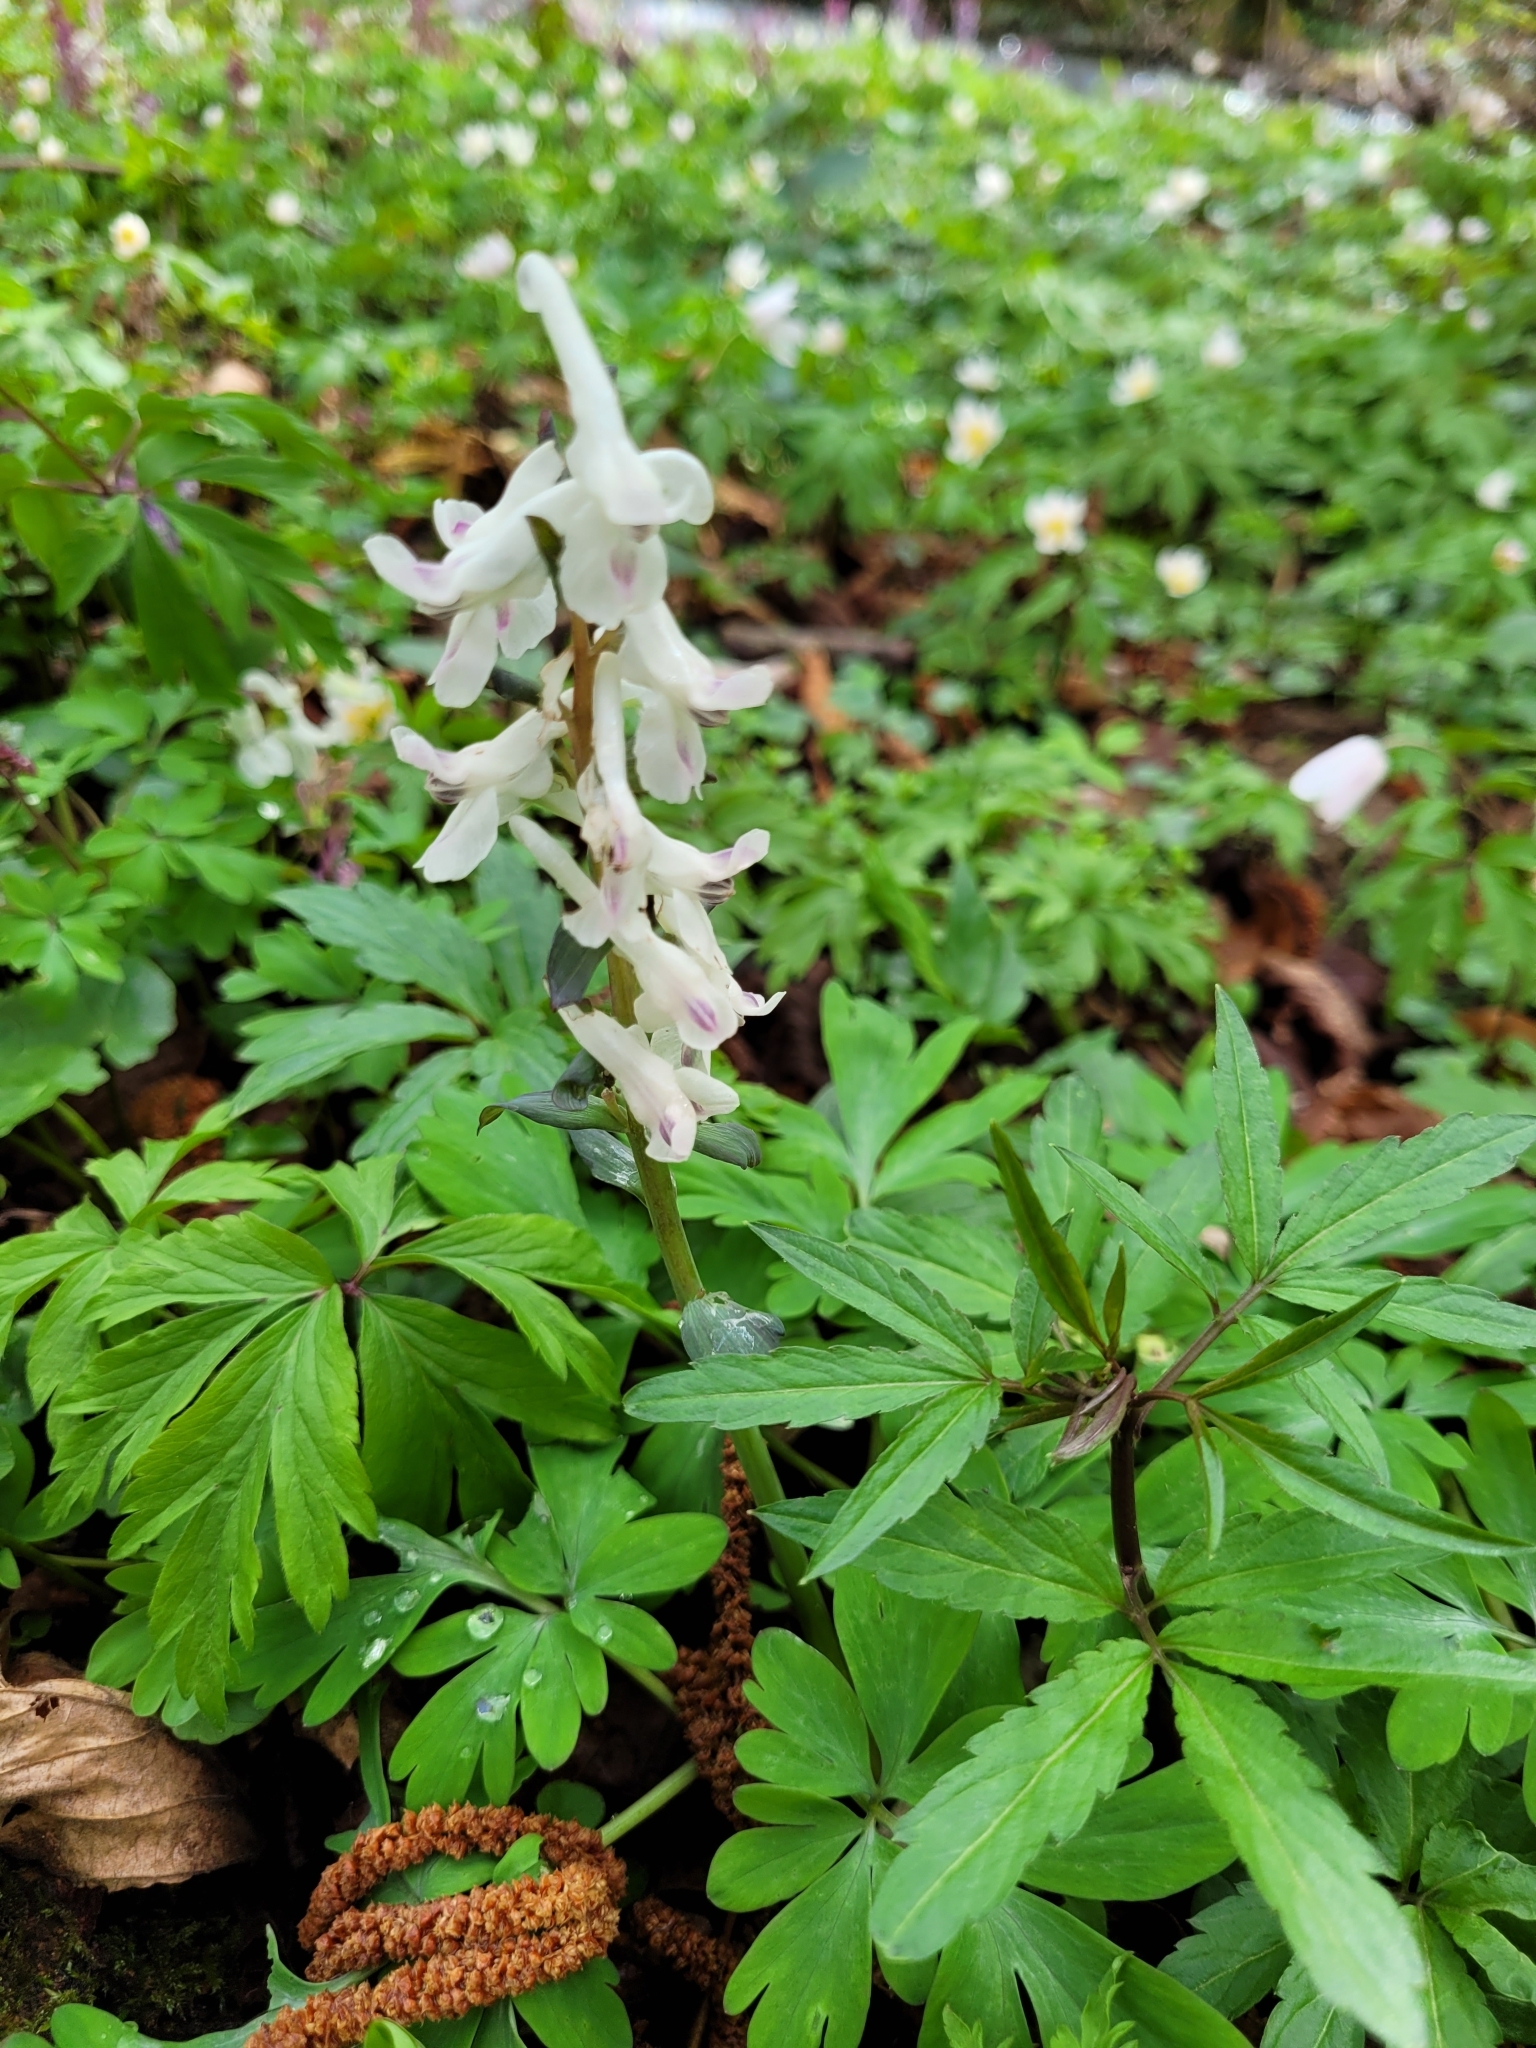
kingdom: Plantae
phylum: Tracheophyta
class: Magnoliopsida
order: Ranunculales
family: Papaveraceae
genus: Corydalis
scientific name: Corydalis cava
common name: Hollowroot
